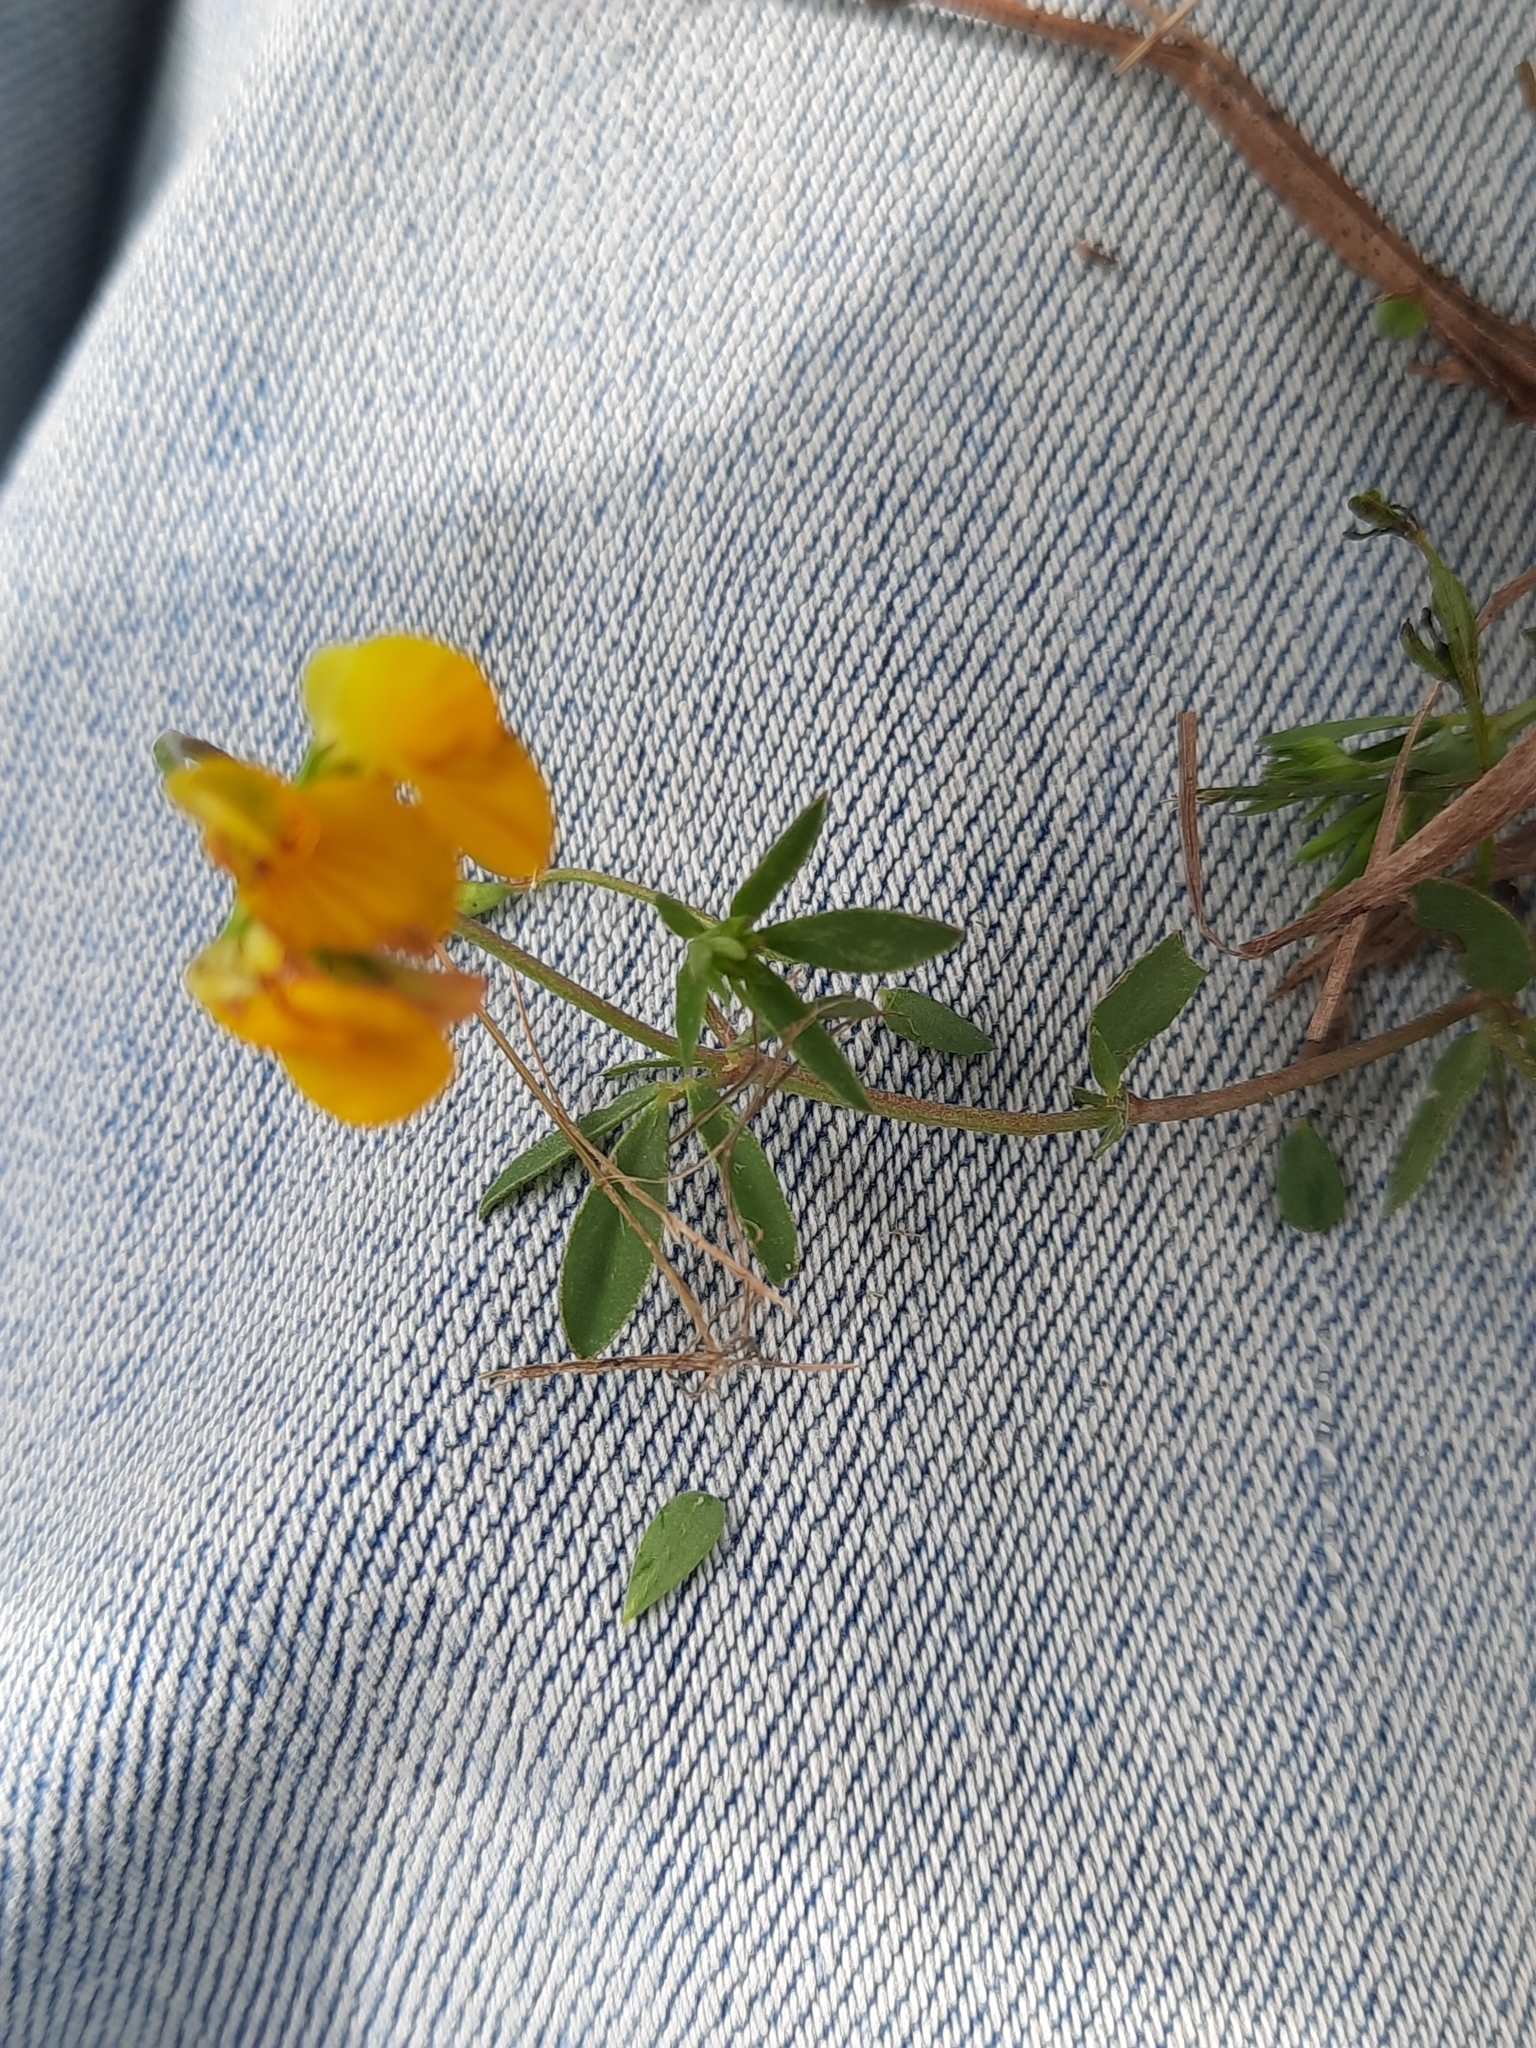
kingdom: Plantae
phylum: Tracheophyta
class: Magnoliopsida
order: Fabales
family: Fabaceae
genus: Lotus
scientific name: Lotus tenuis
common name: Narrow-leaved bird's-foot-trefoil
